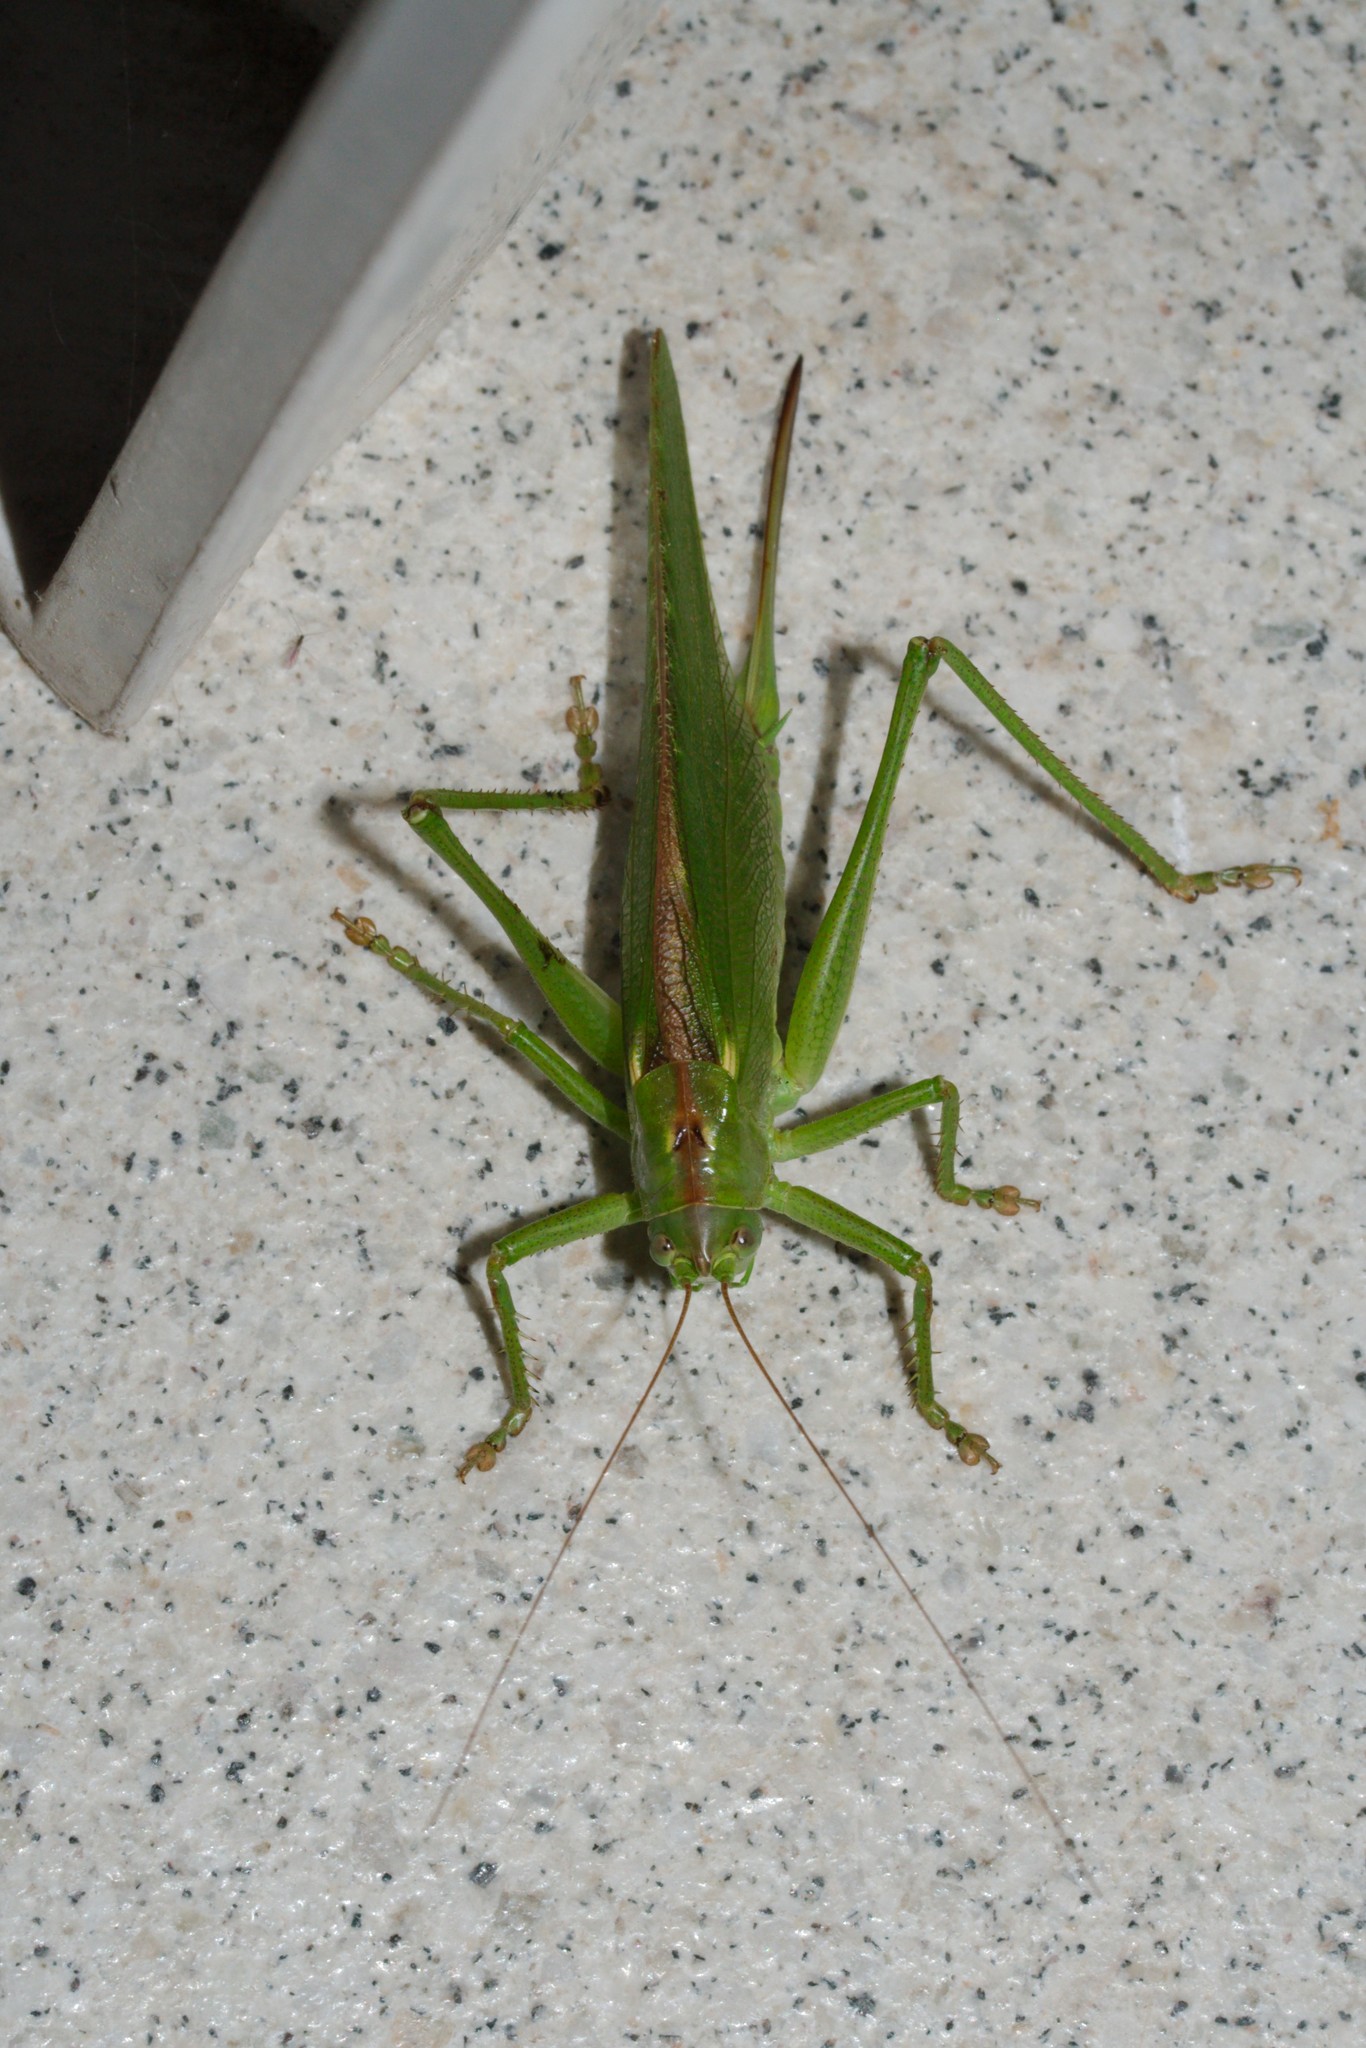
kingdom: Animalia
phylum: Arthropoda
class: Insecta
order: Orthoptera
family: Tettigoniidae
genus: Tettigonia
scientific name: Tettigonia viridissima
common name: Great green bush-cricket
